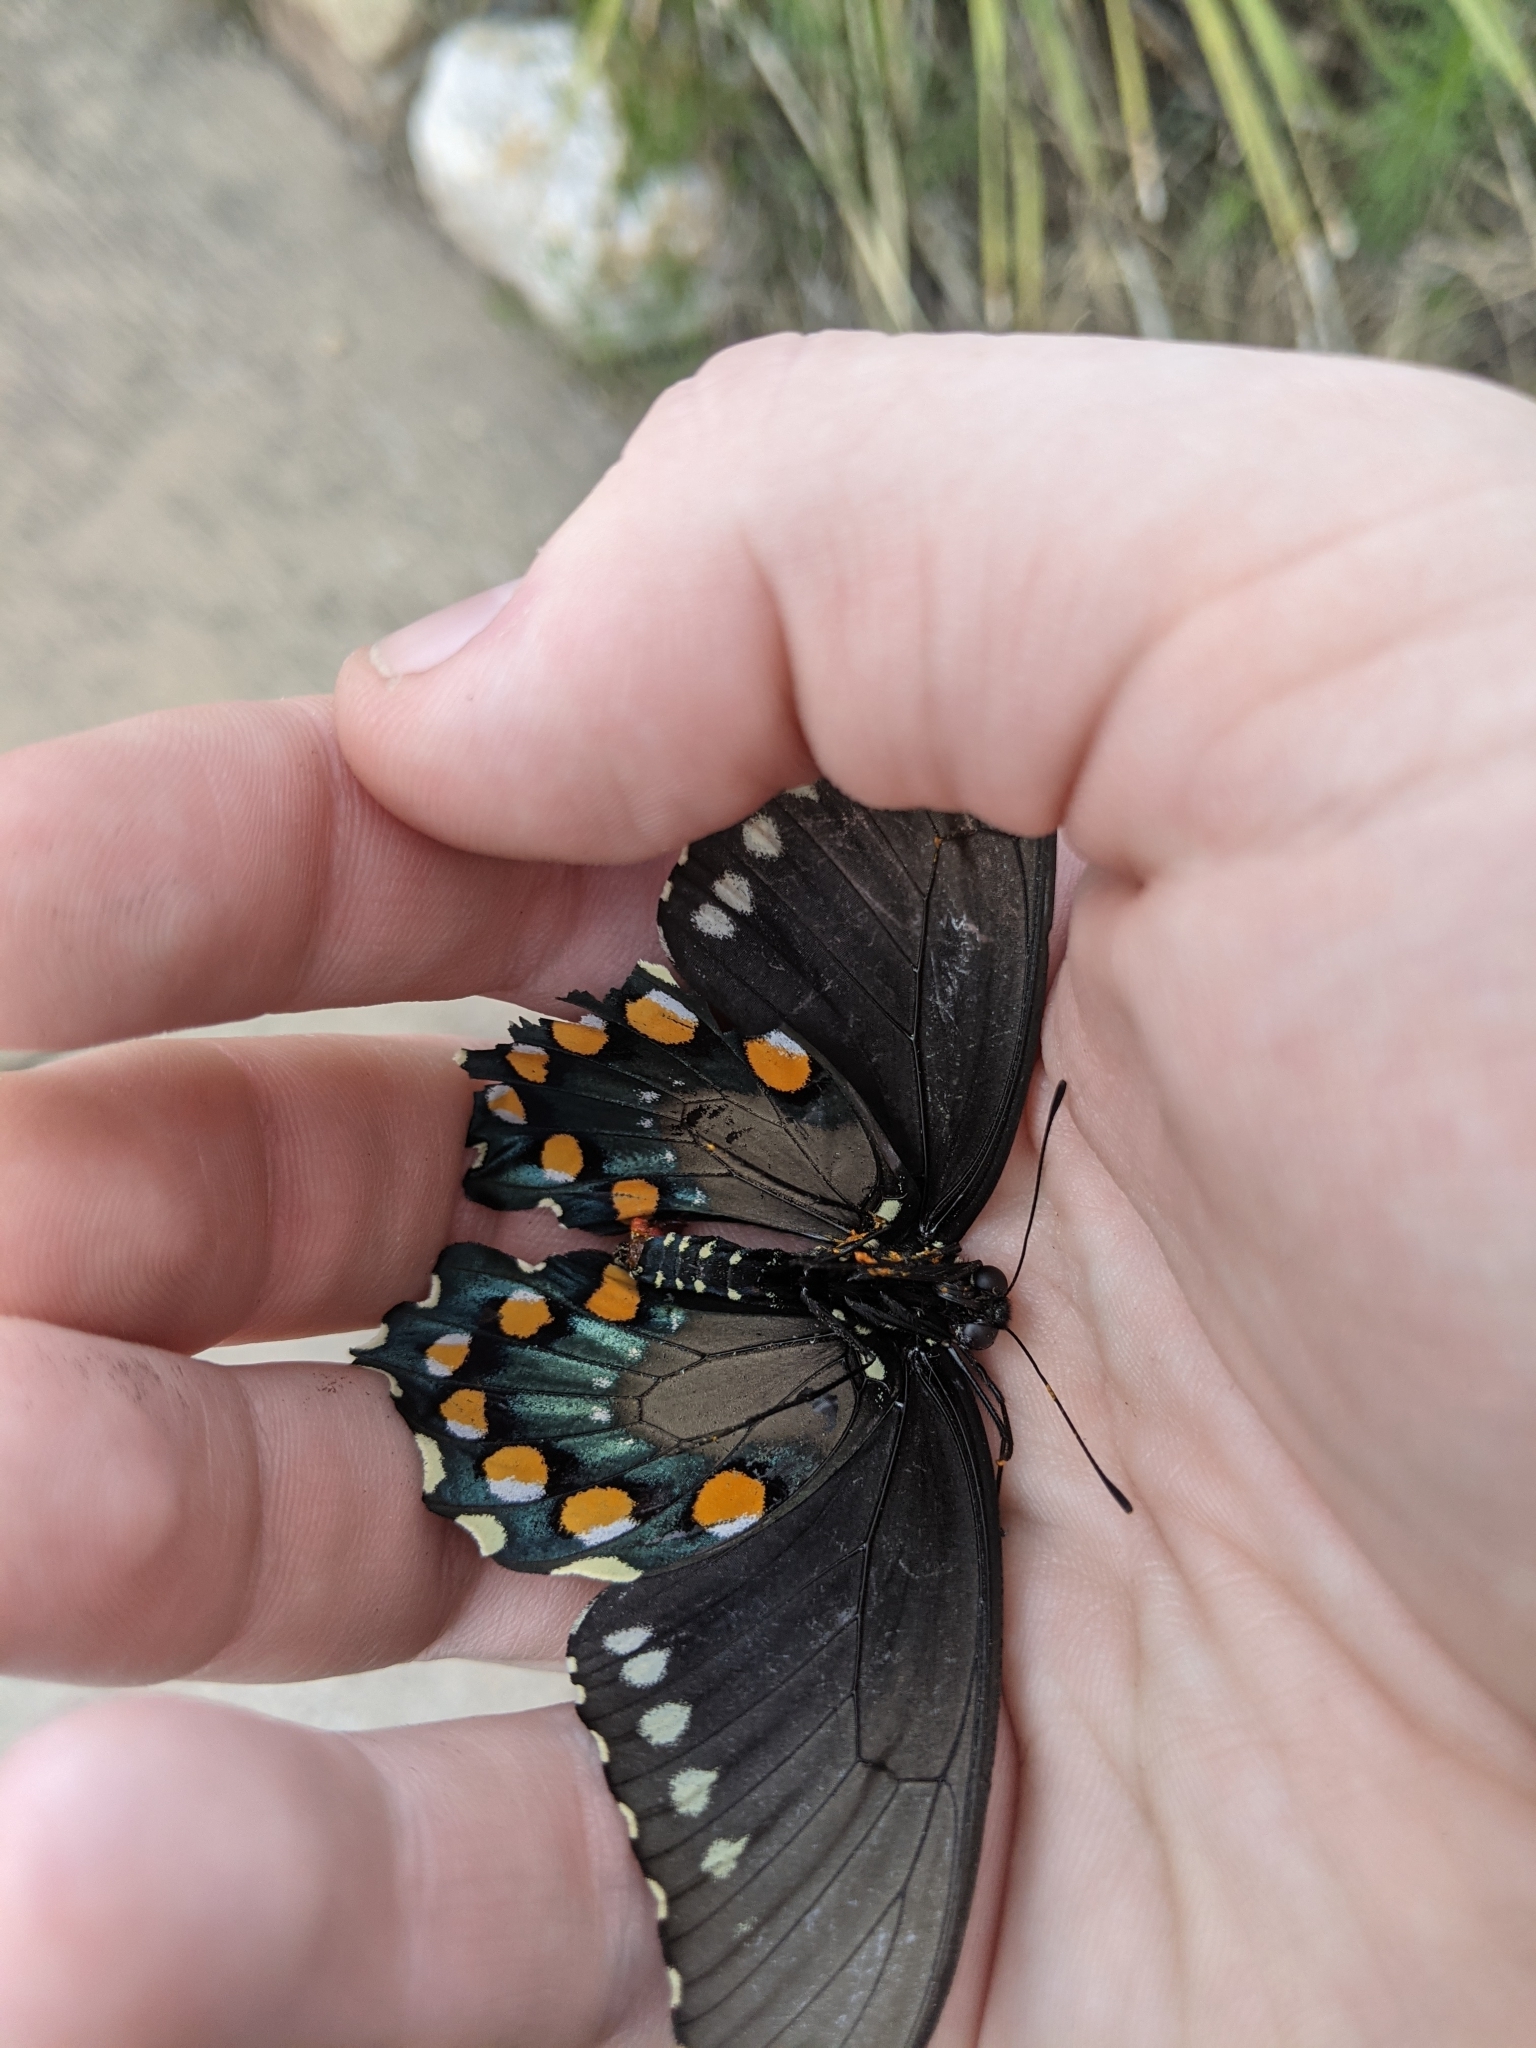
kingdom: Animalia
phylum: Arthropoda
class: Insecta
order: Lepidoptera
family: Papilionidae
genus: Battus
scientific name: Battus philenor
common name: Pipevine swallowtail
